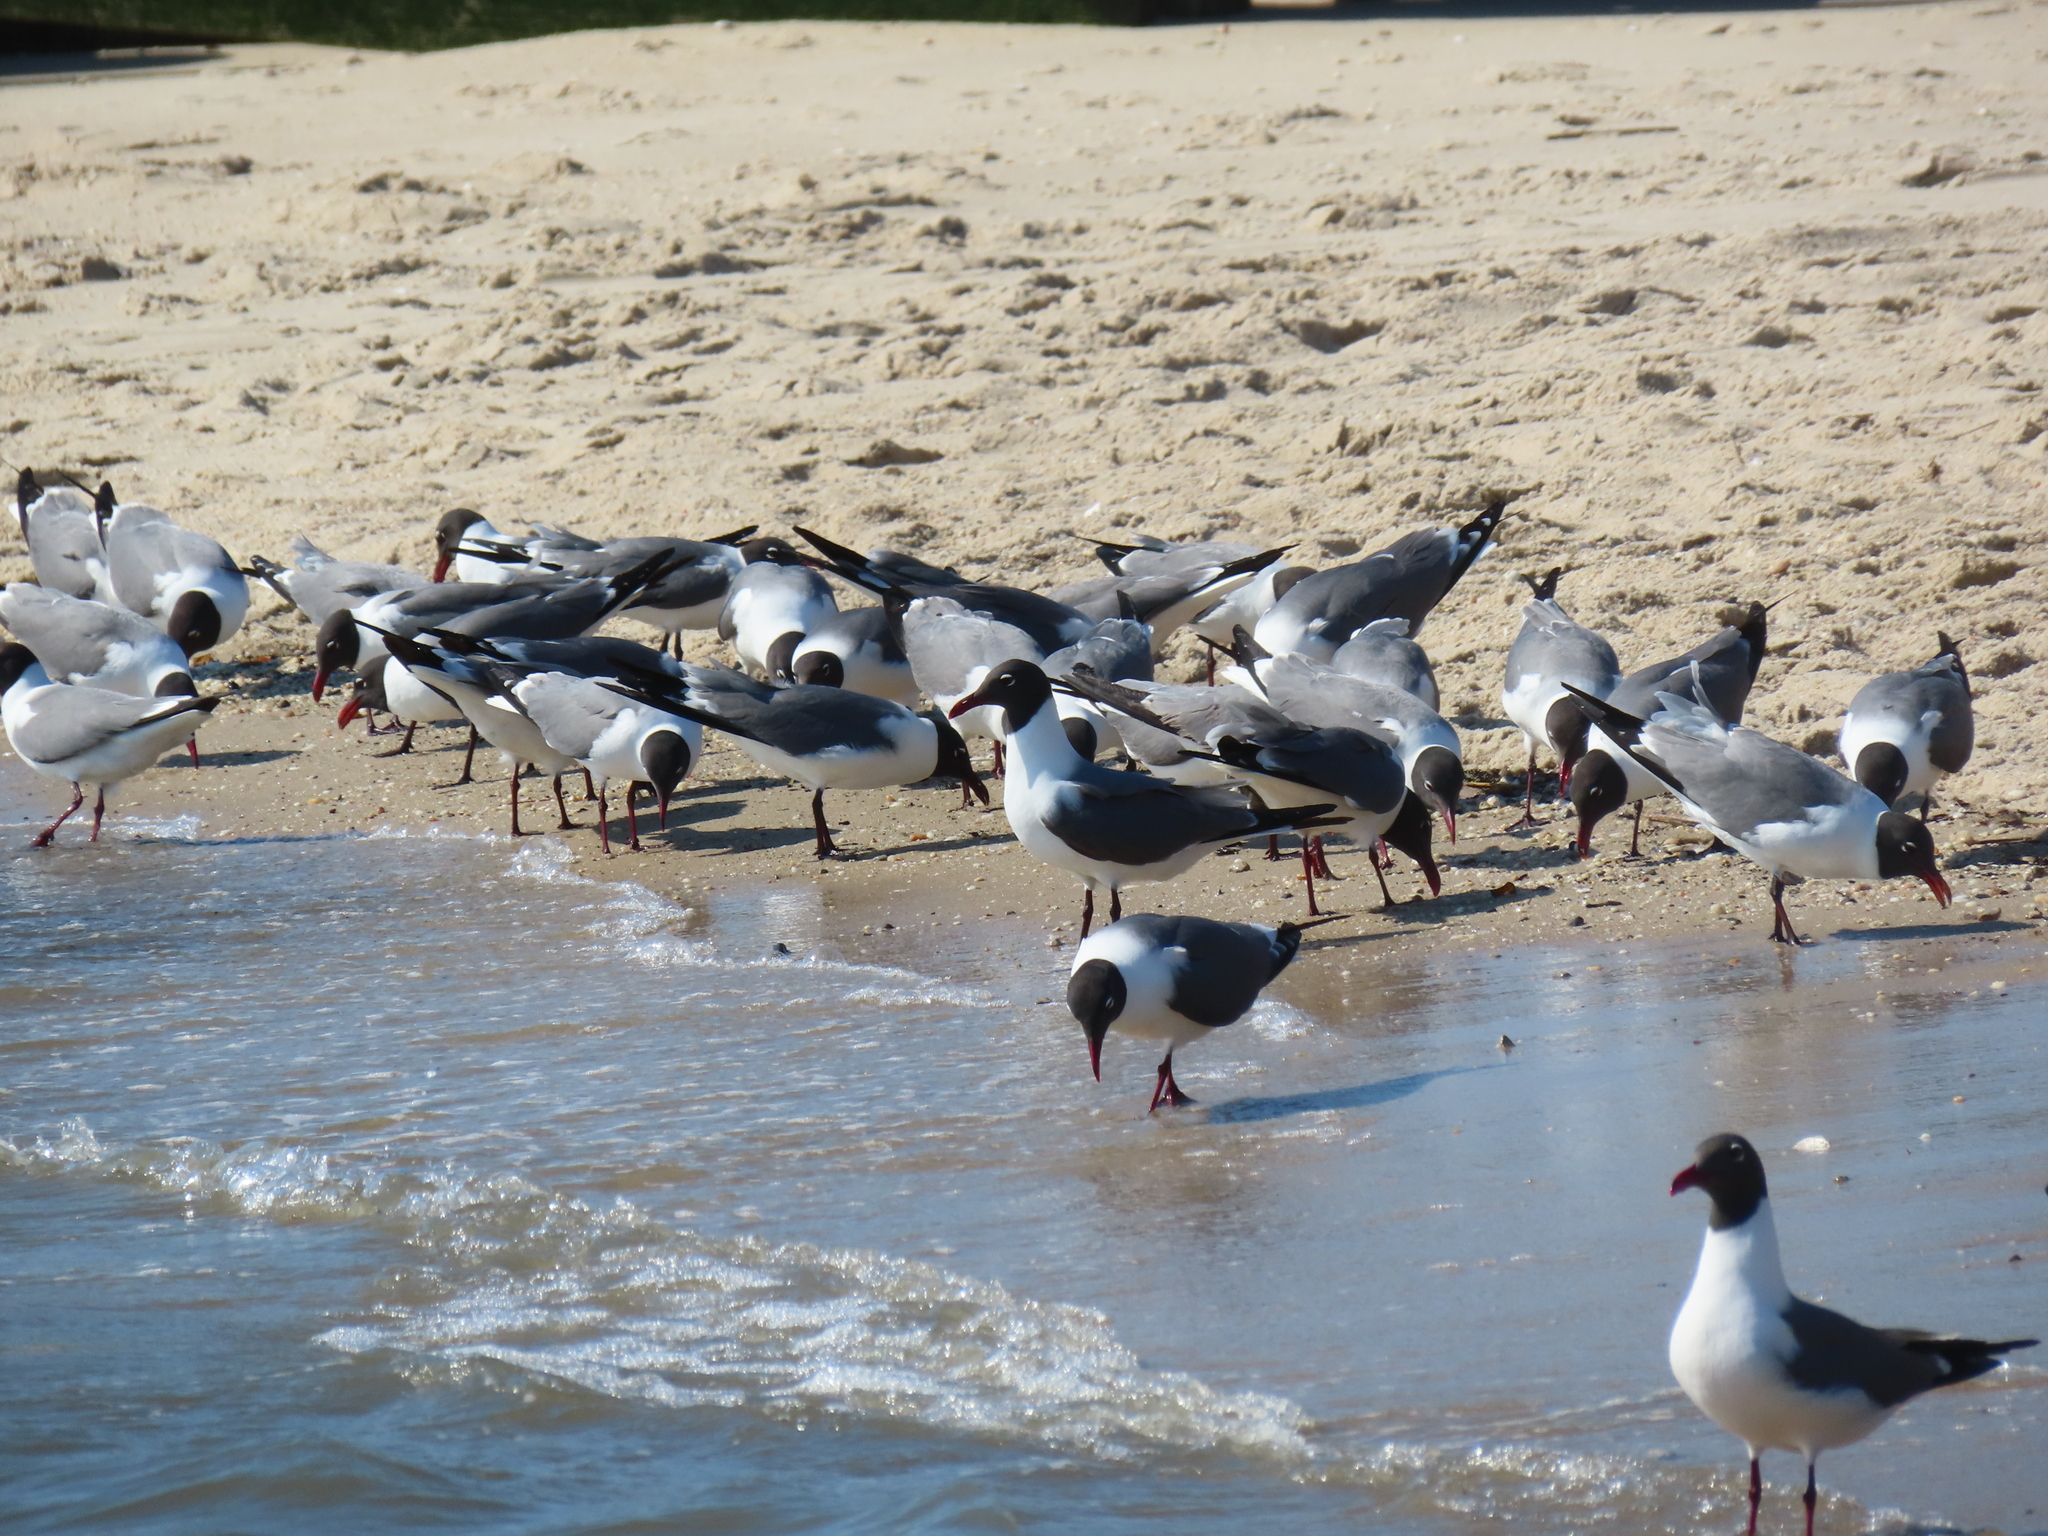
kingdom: Animalia
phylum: Chordata
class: Aves
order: Charadriiformes
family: Laridae
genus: Leucophaeus
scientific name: Leucophaeus atricilla
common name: Laughing gull
